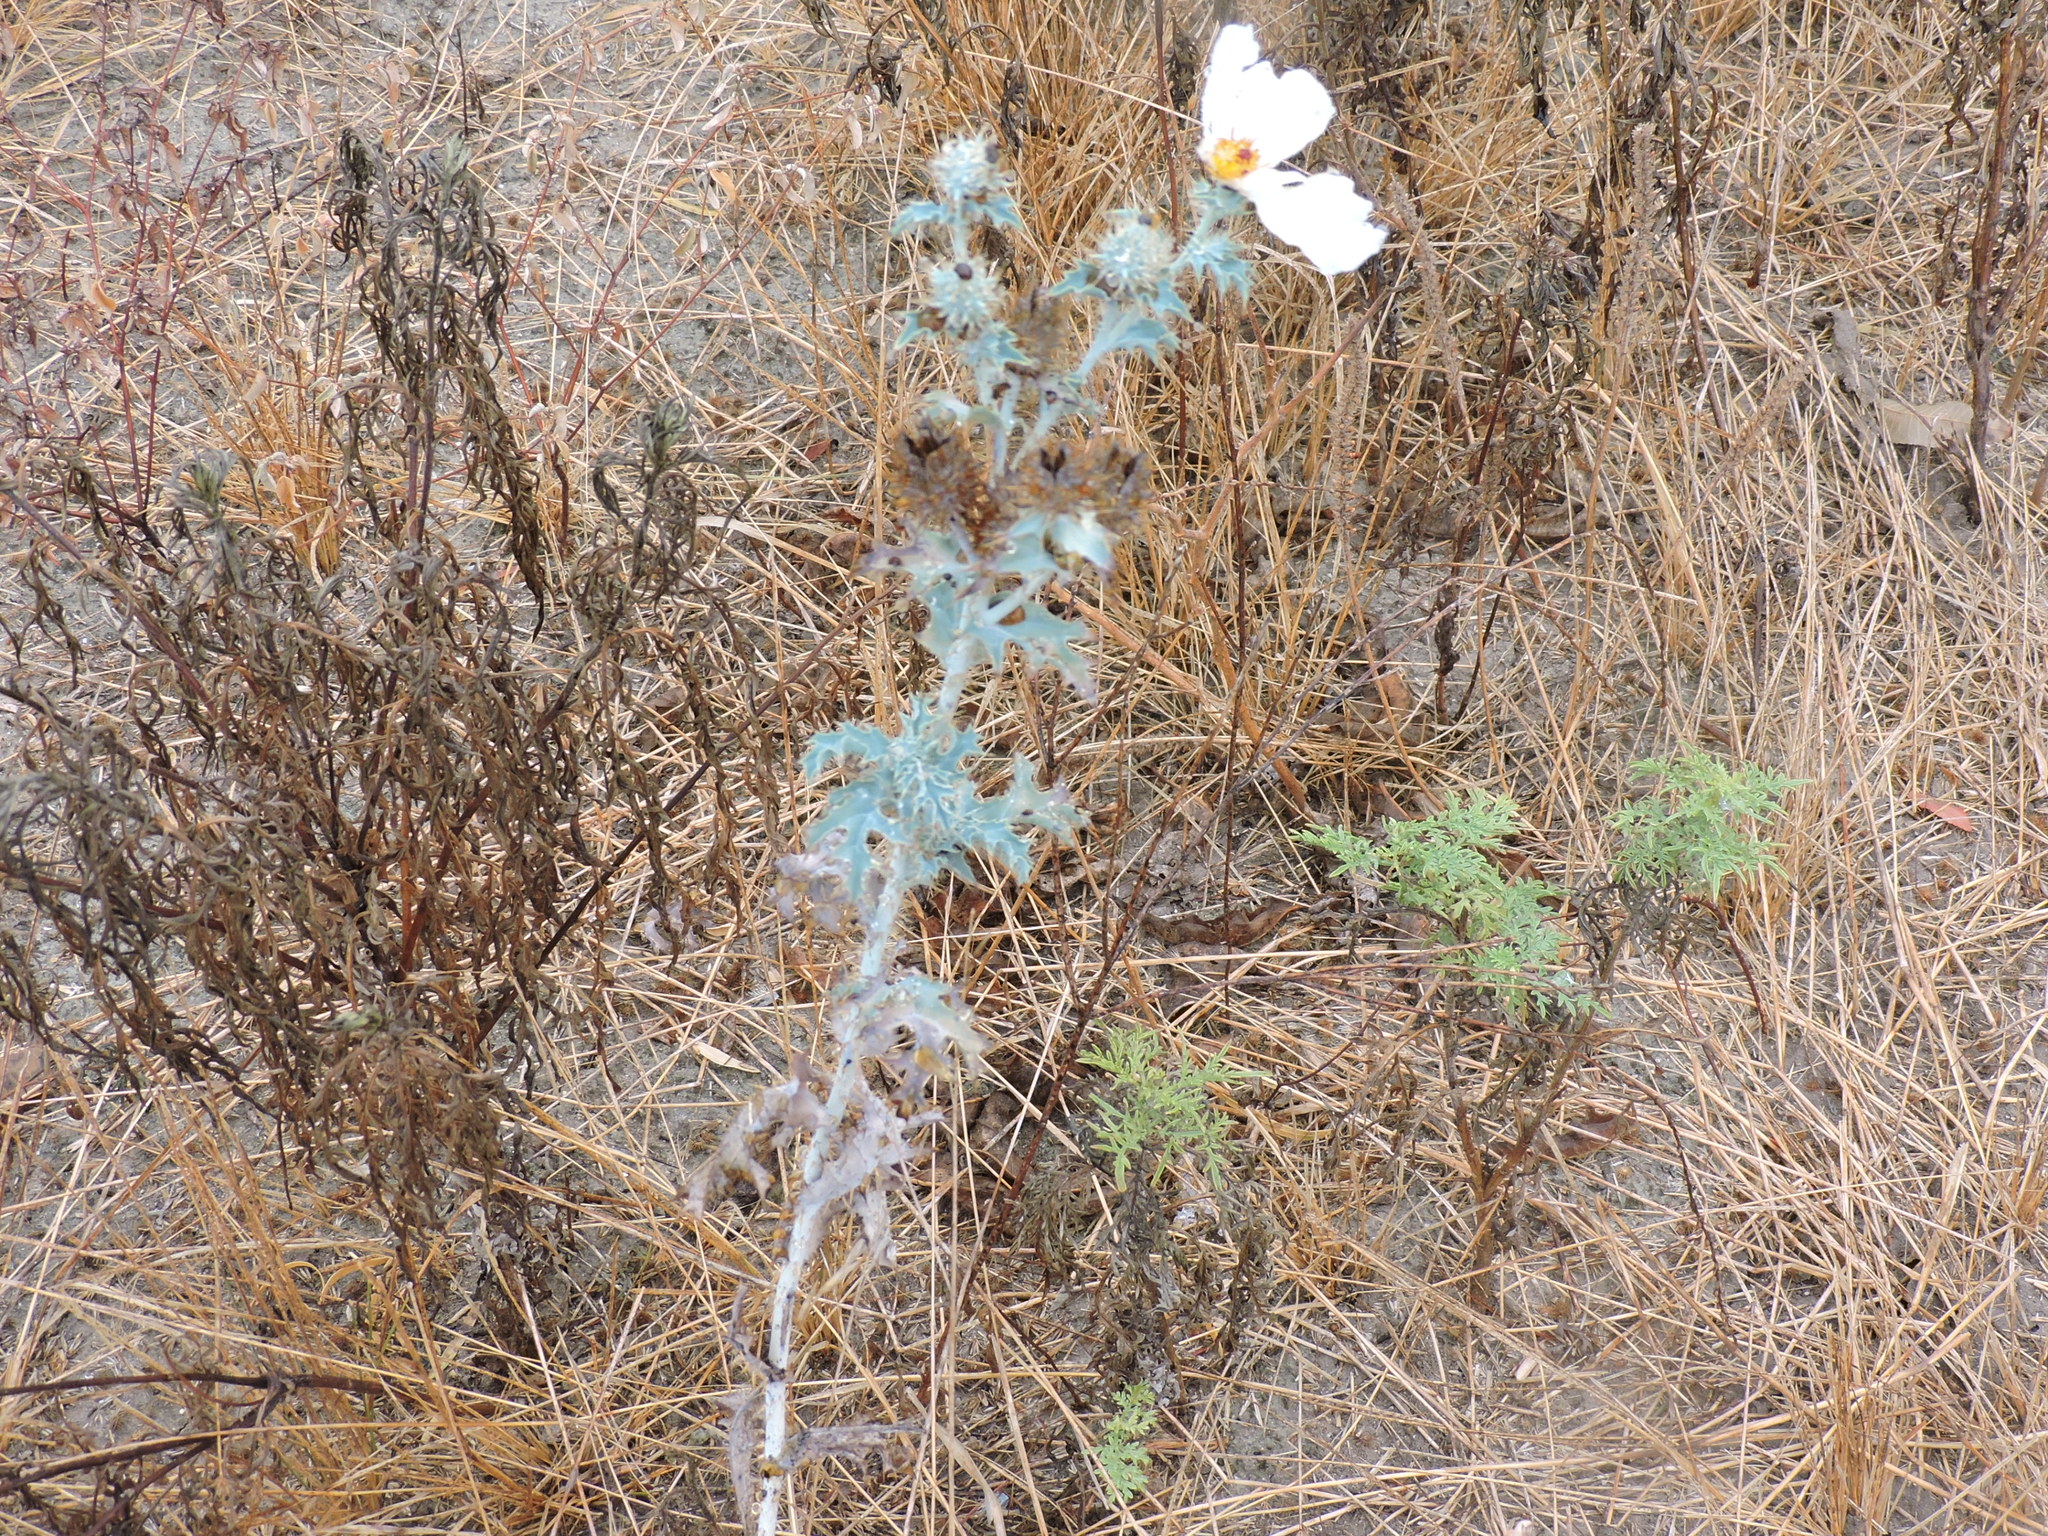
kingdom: Plantae
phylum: Tracheophyta
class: Magnoliopsida
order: Ranunculales
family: Papaveraceae
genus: Argemone
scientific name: Argemone albiflora
